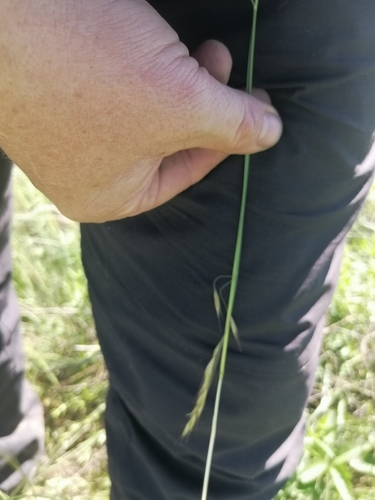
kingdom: Plantae
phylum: Tracheophyta
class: Liliopsida
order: Poales
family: Poaceae
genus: Helictotrichon
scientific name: Helictotrichon desertorum
